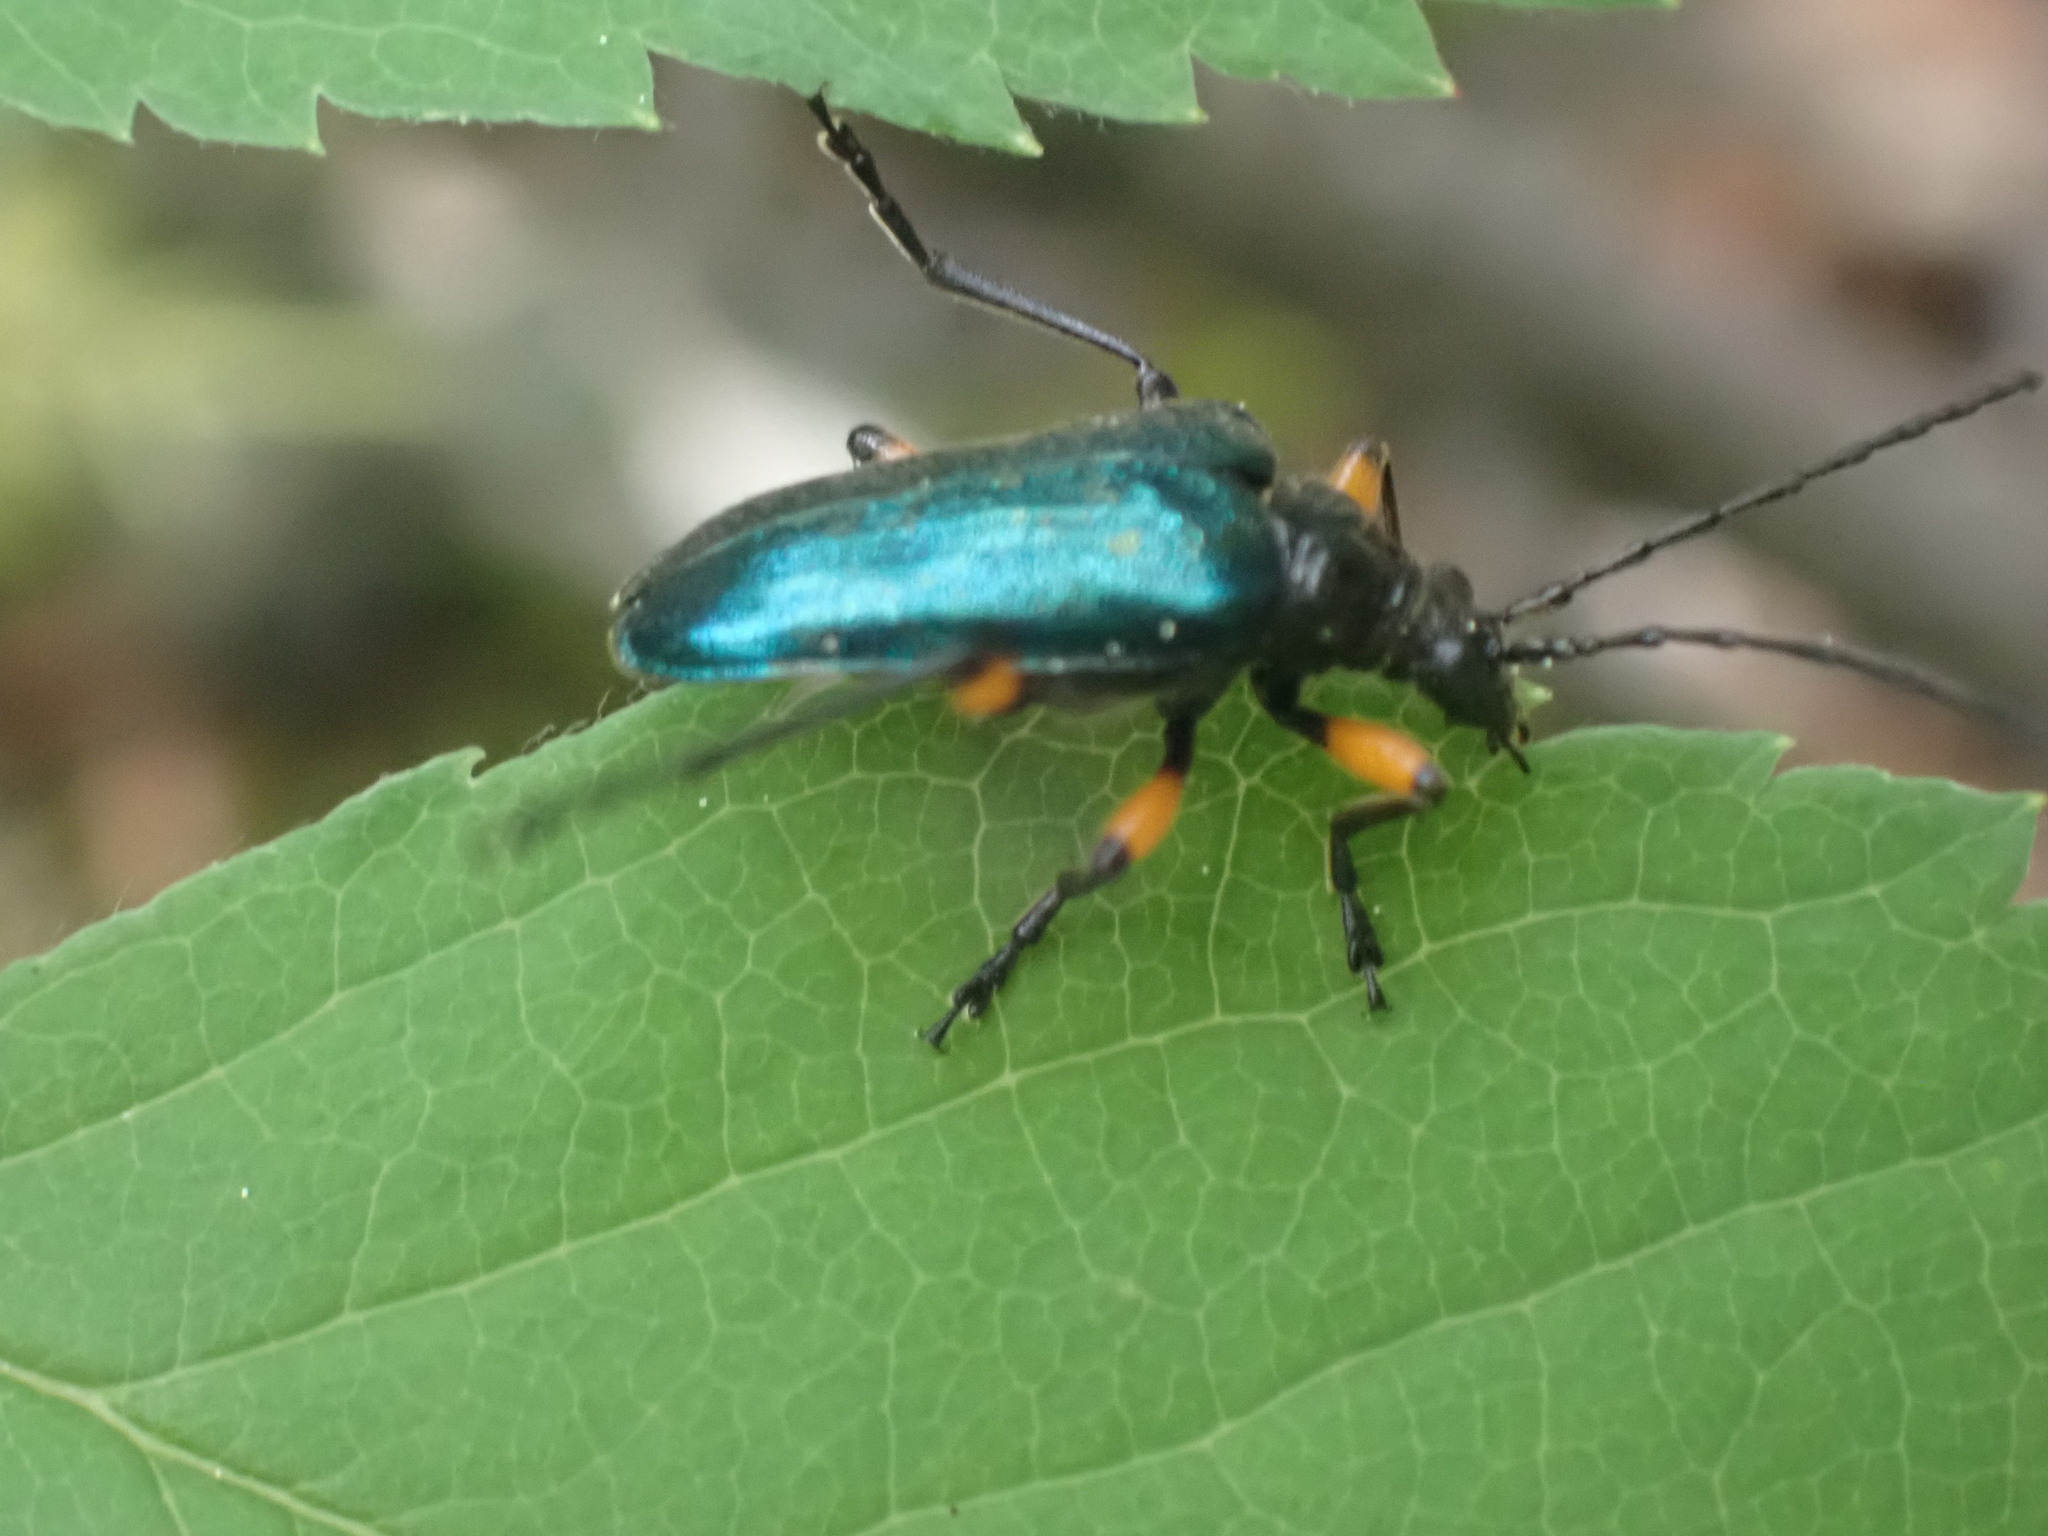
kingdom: Animalia
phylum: Arthropoda
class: Insecta
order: Coleoptera
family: Cerambycidae
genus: Pseudogaurotina
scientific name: Pseudogaurotina cressoni
